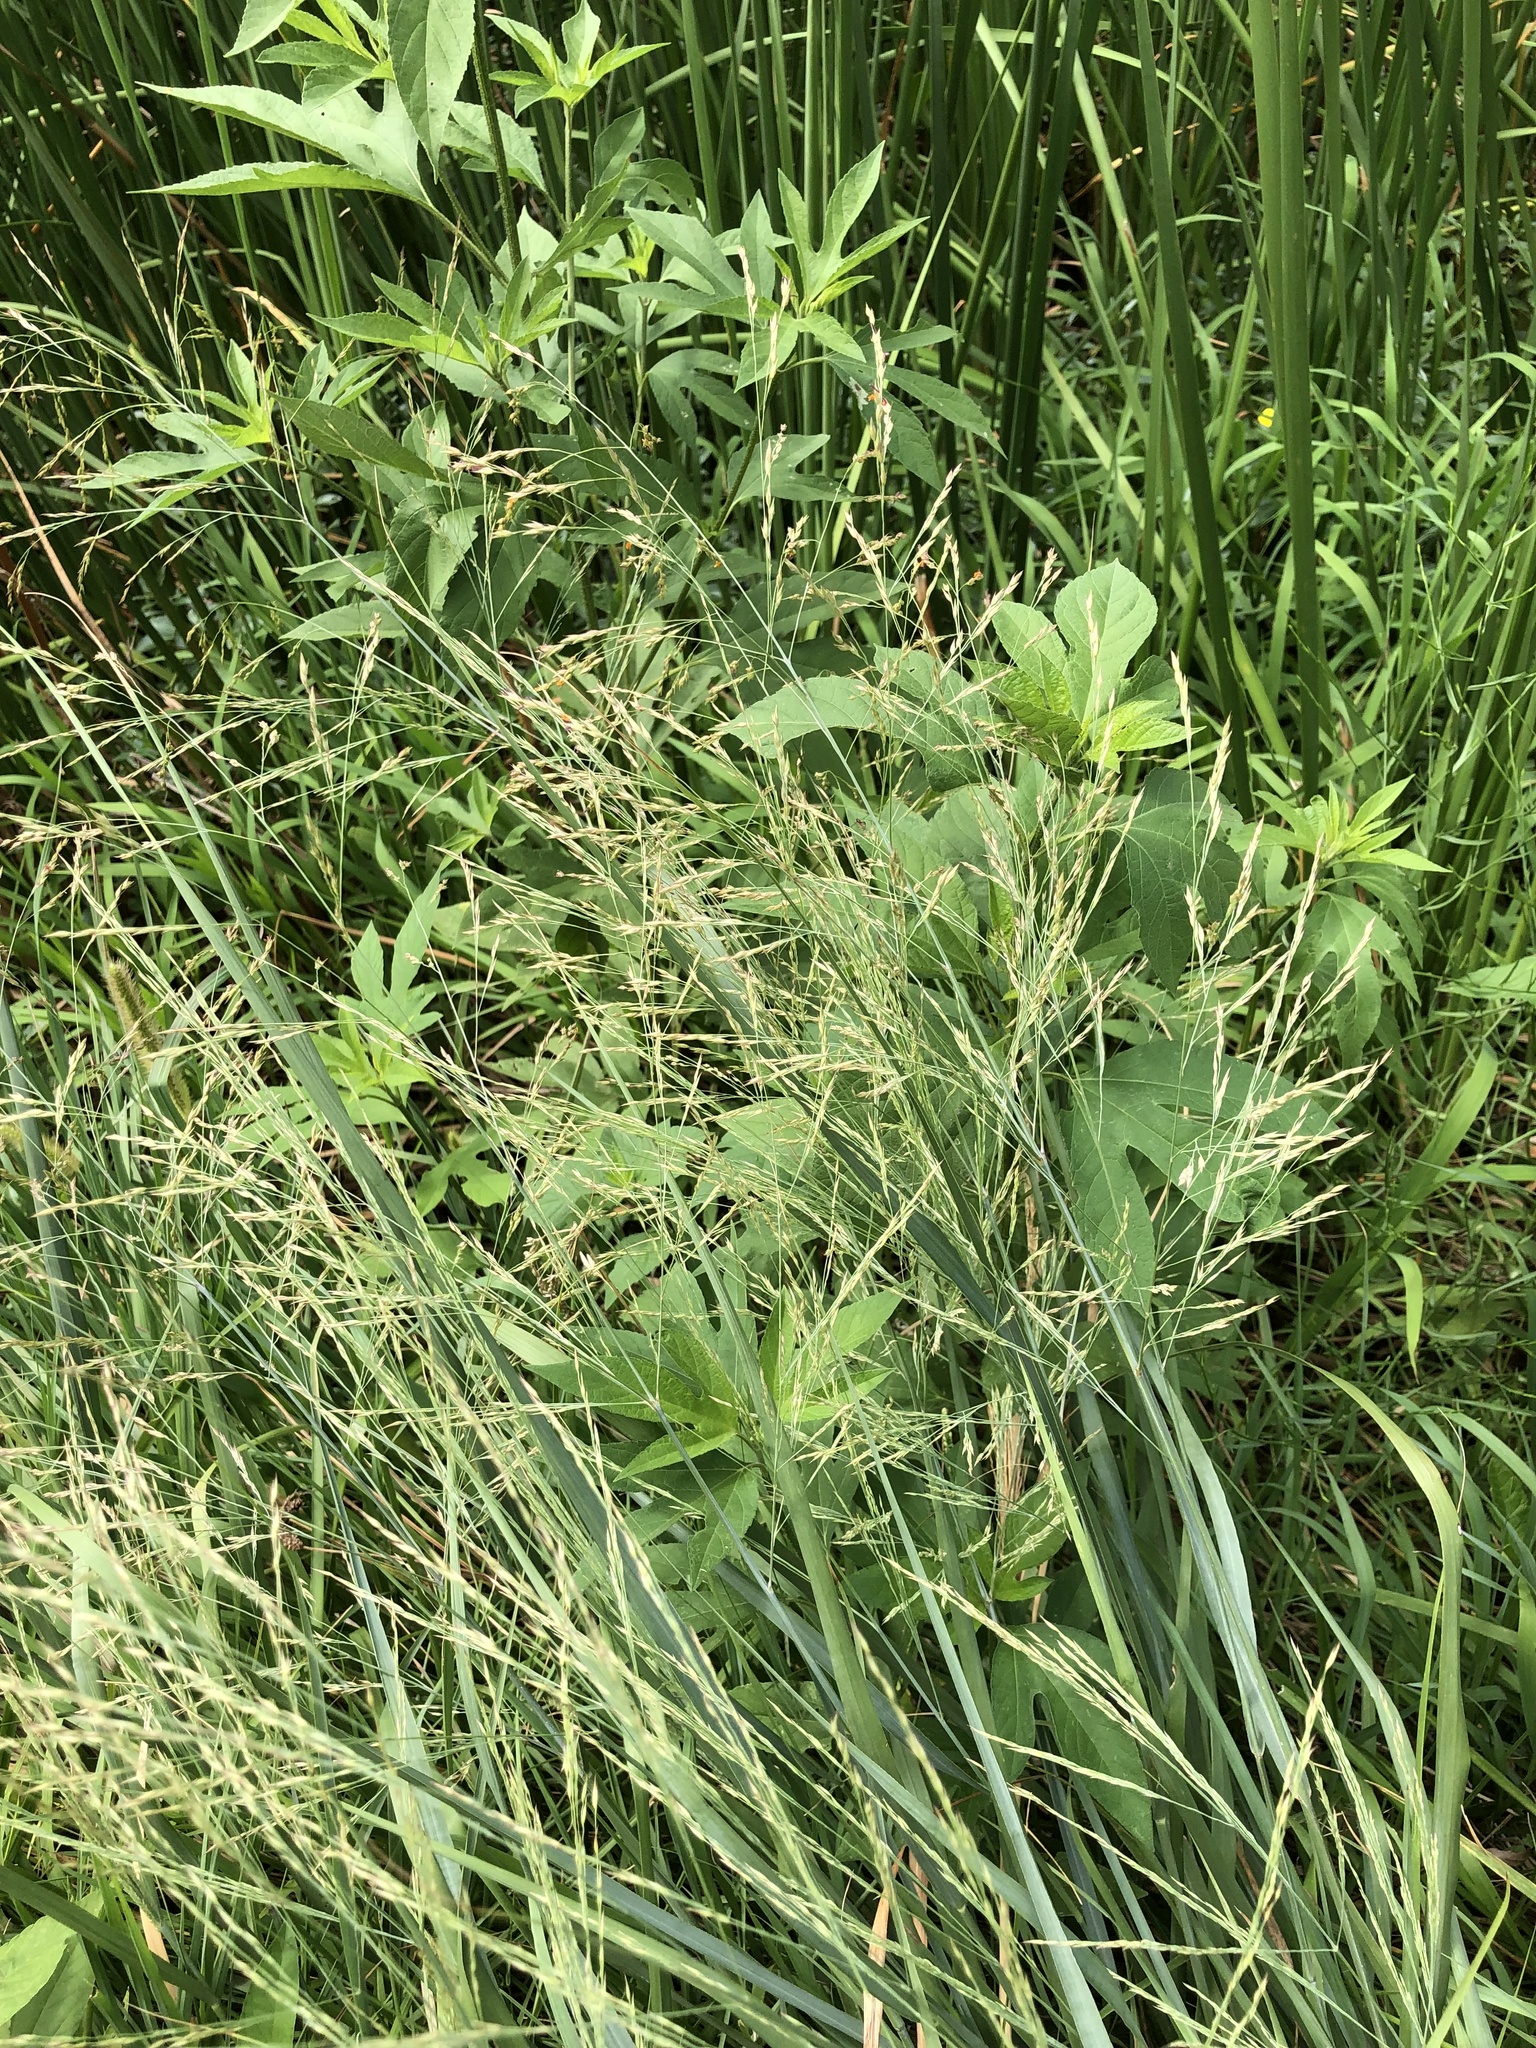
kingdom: Plantae
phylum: Tracheophyta
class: Liliopsida
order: Poales
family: Poaceae
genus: Panicum
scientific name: Panicum virgatum
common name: Switchgrass
